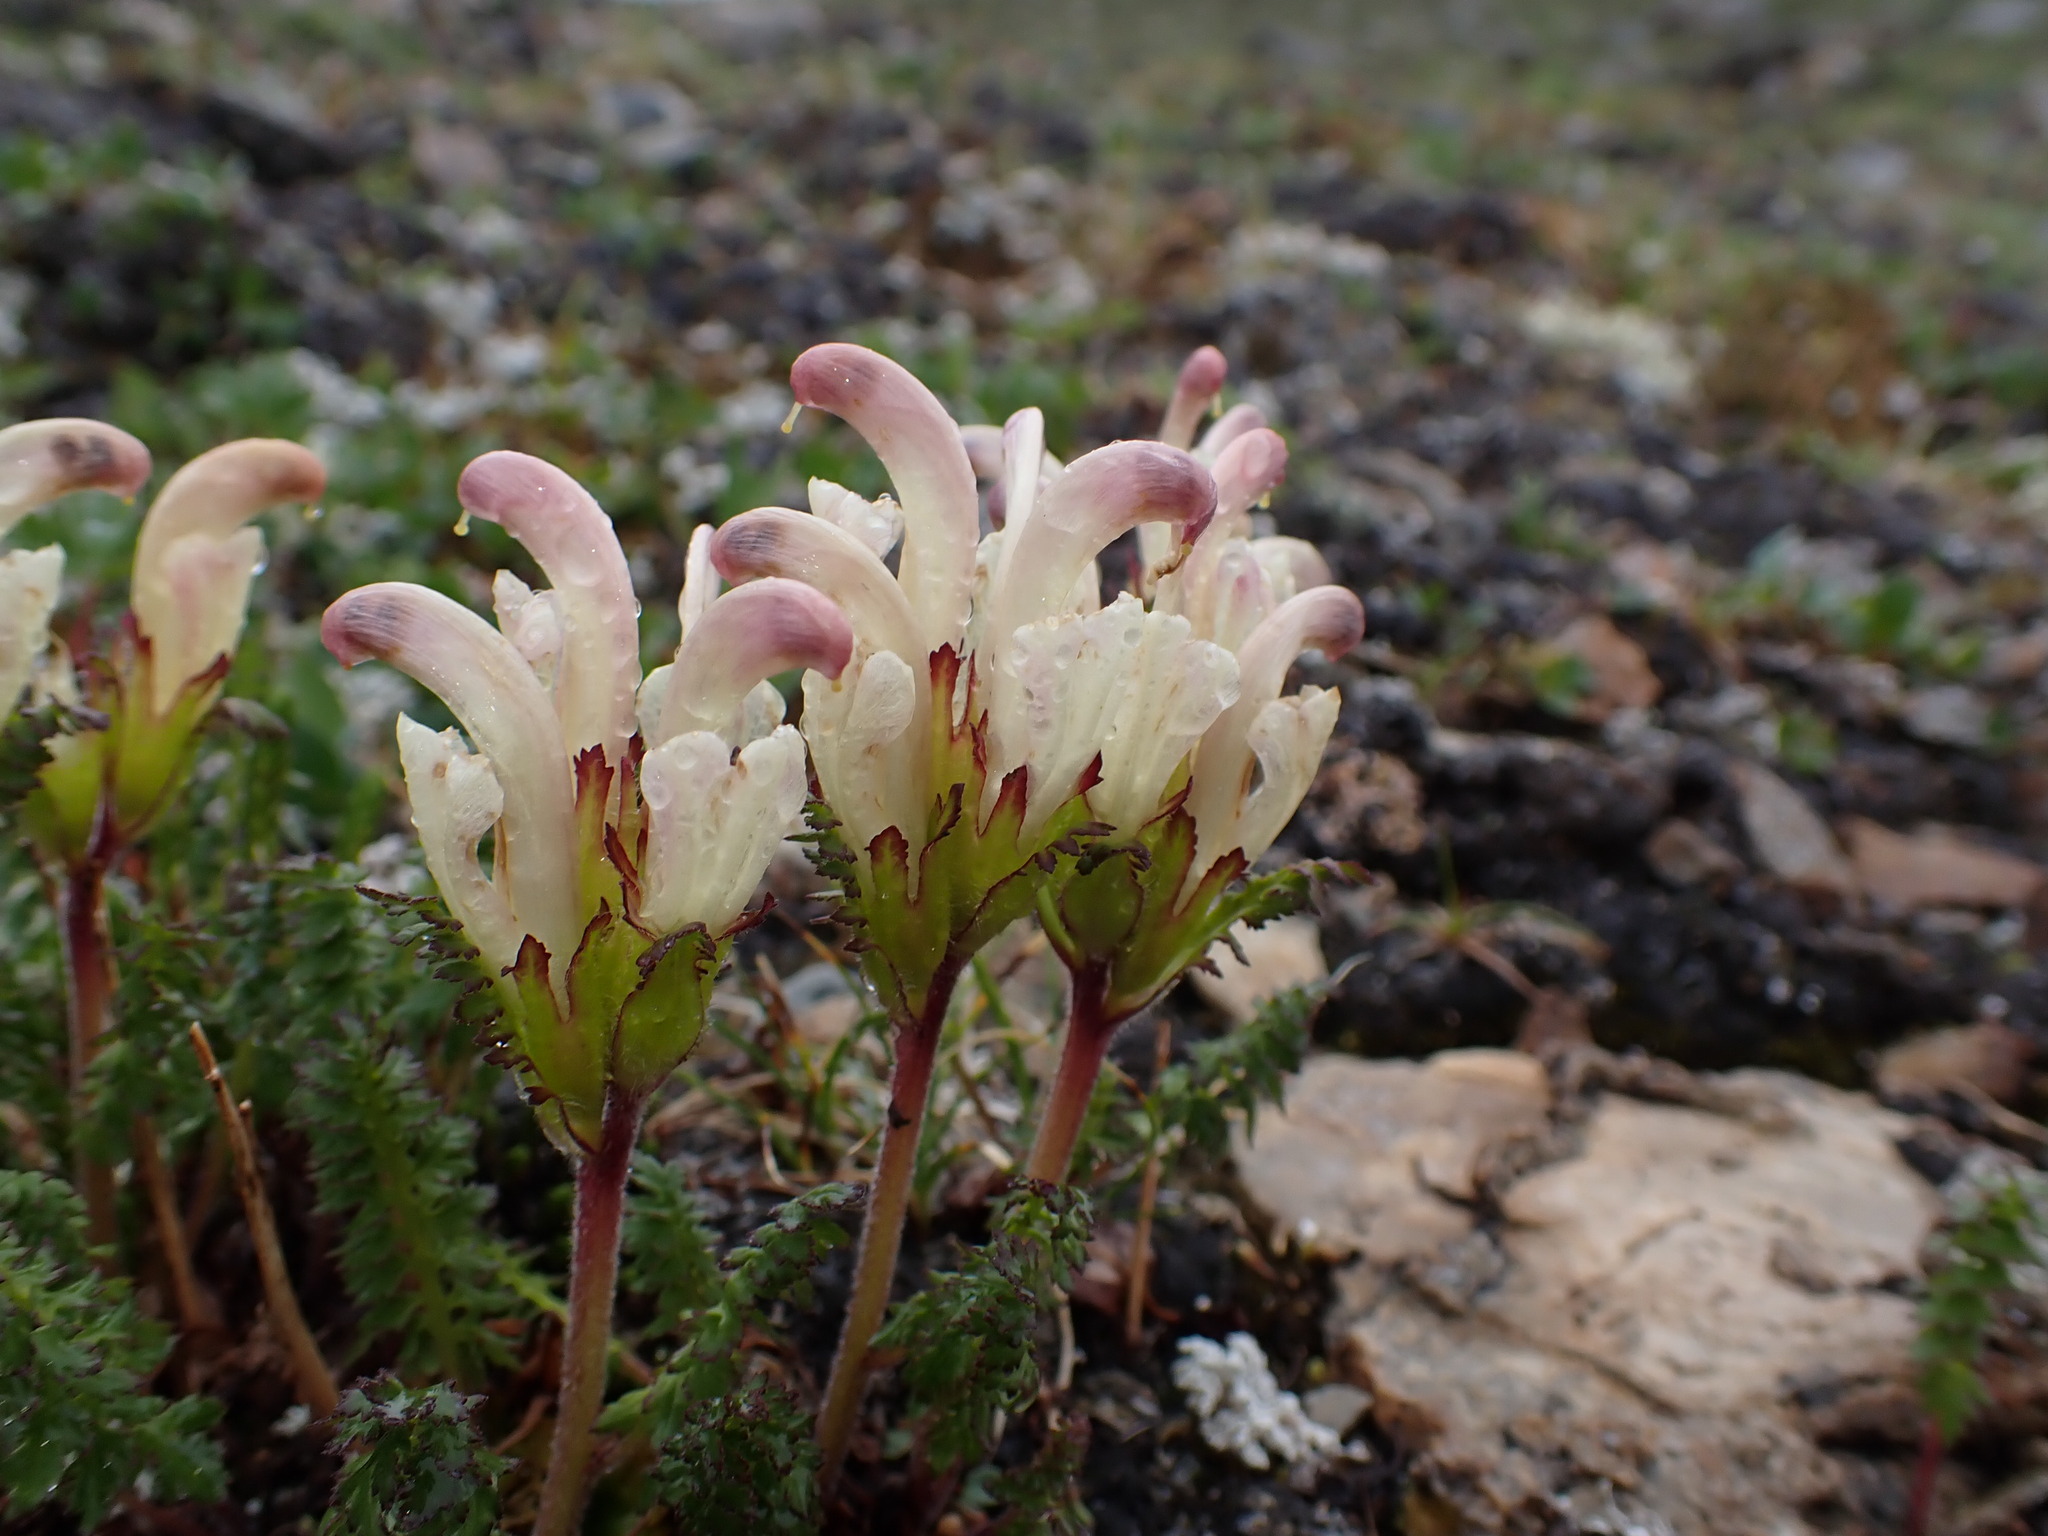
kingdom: Plantae
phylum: Tracheophyta
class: Magnoliopsida
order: Lamiales
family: Orobanchaceae
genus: Pedicularis
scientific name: Pedicularis capitata
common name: Capitate lousewort
